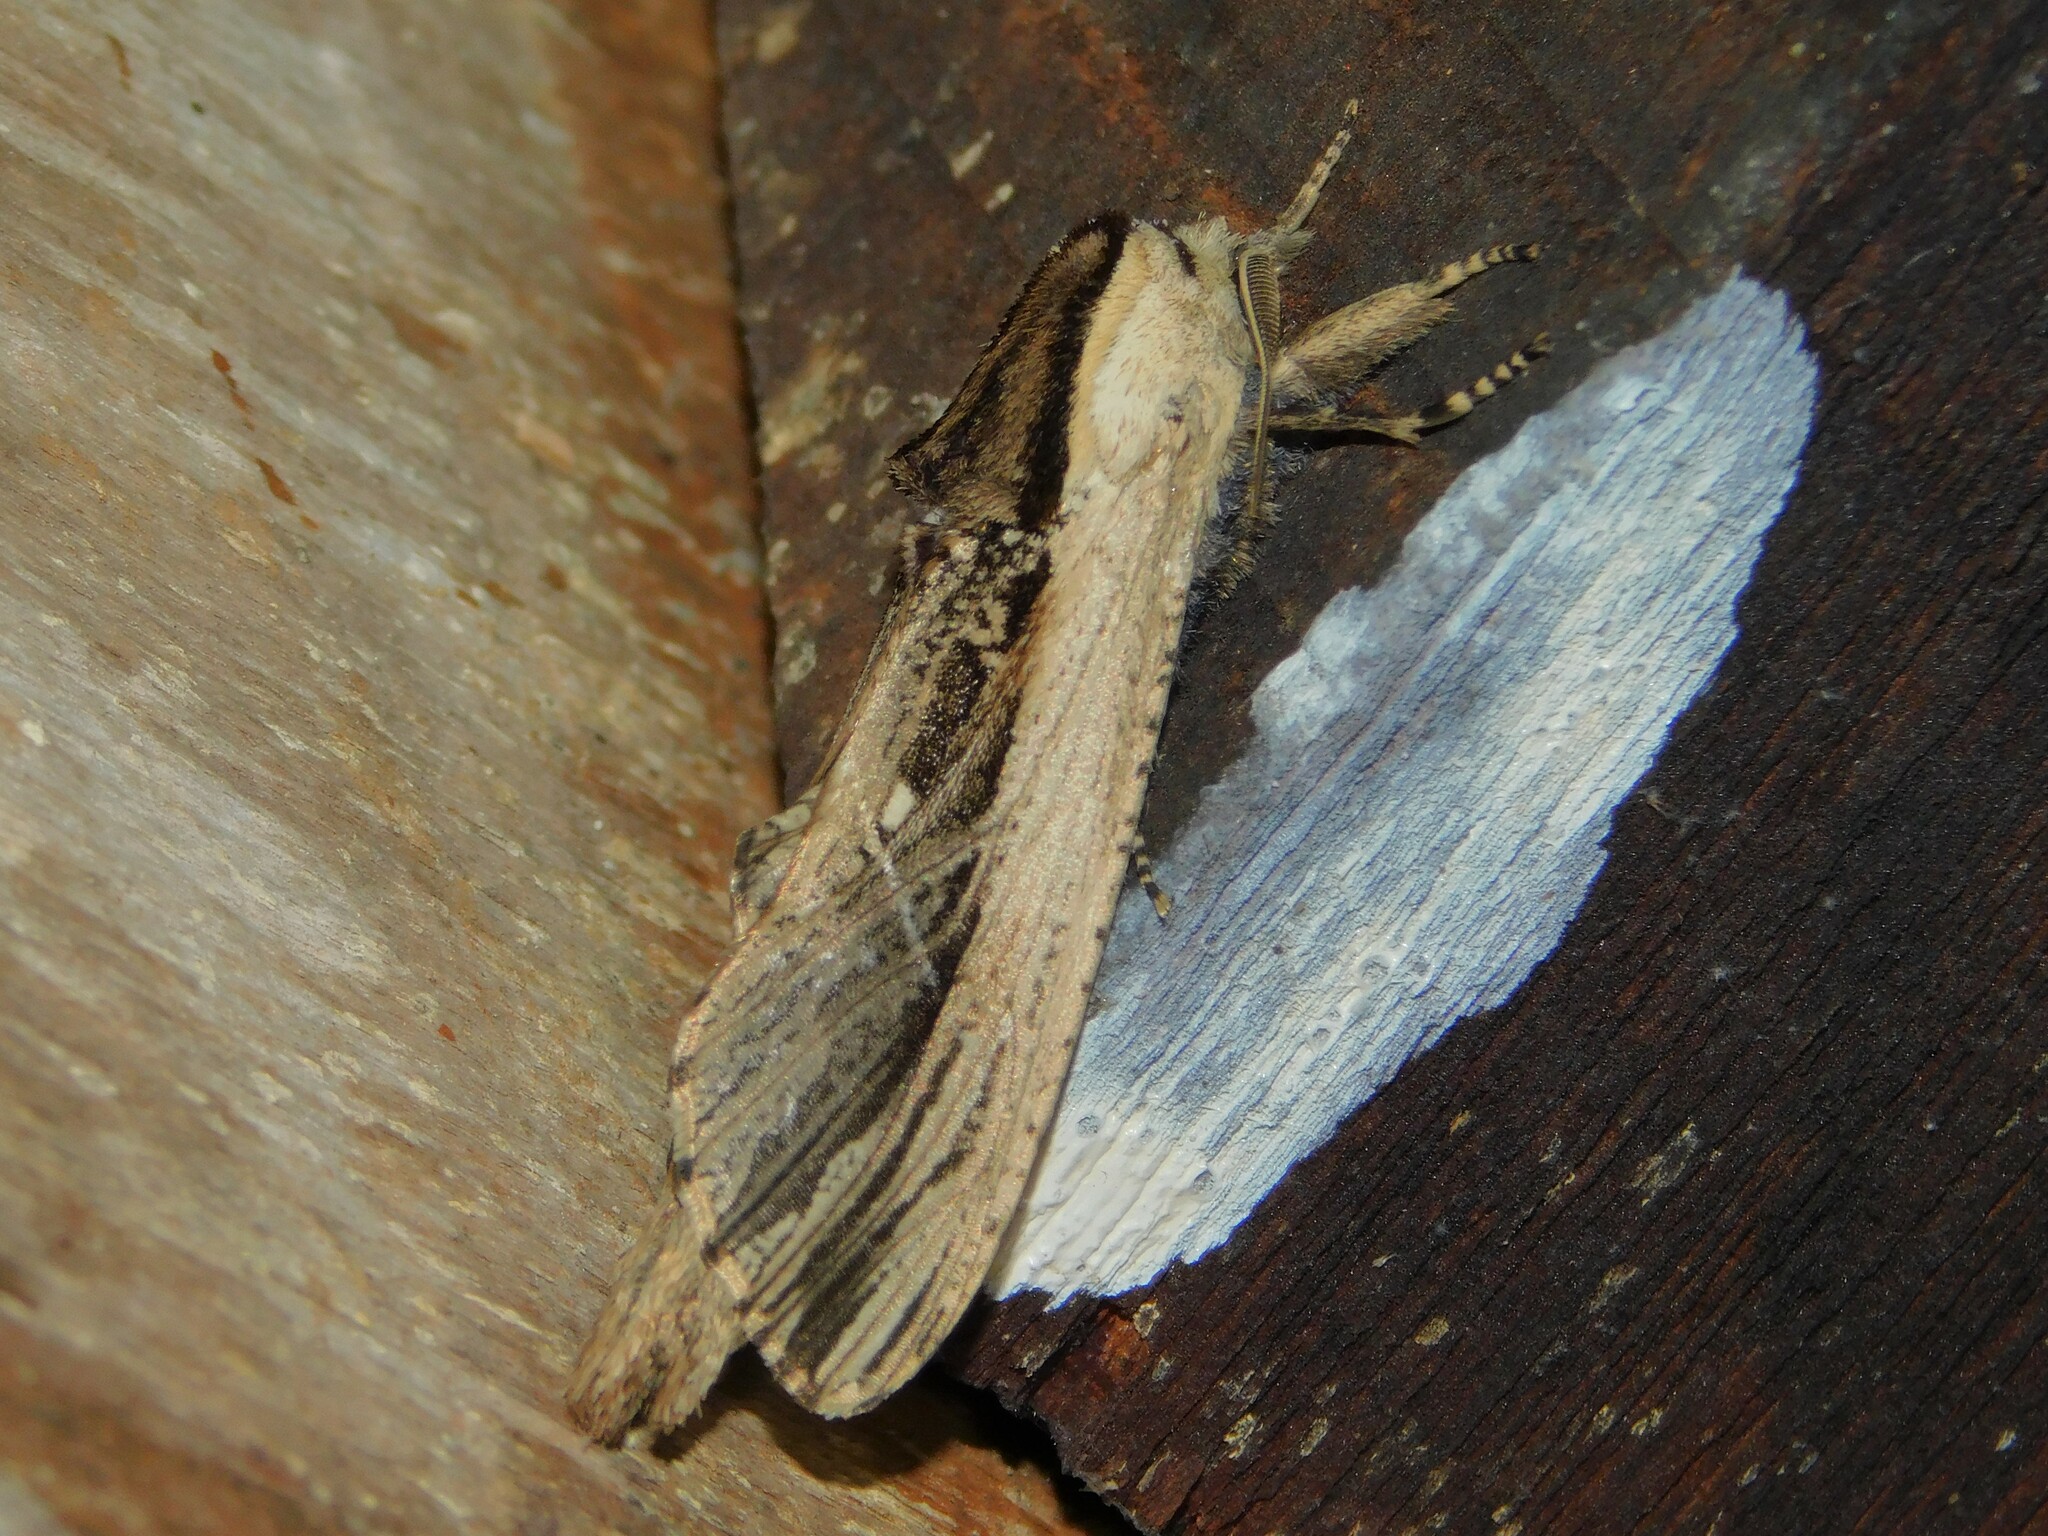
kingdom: Animalia
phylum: Arthropoda
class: Insecta
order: Lepidoptera
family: Cossidae
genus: Strigocossus
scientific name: Strigocossus ochricosta
